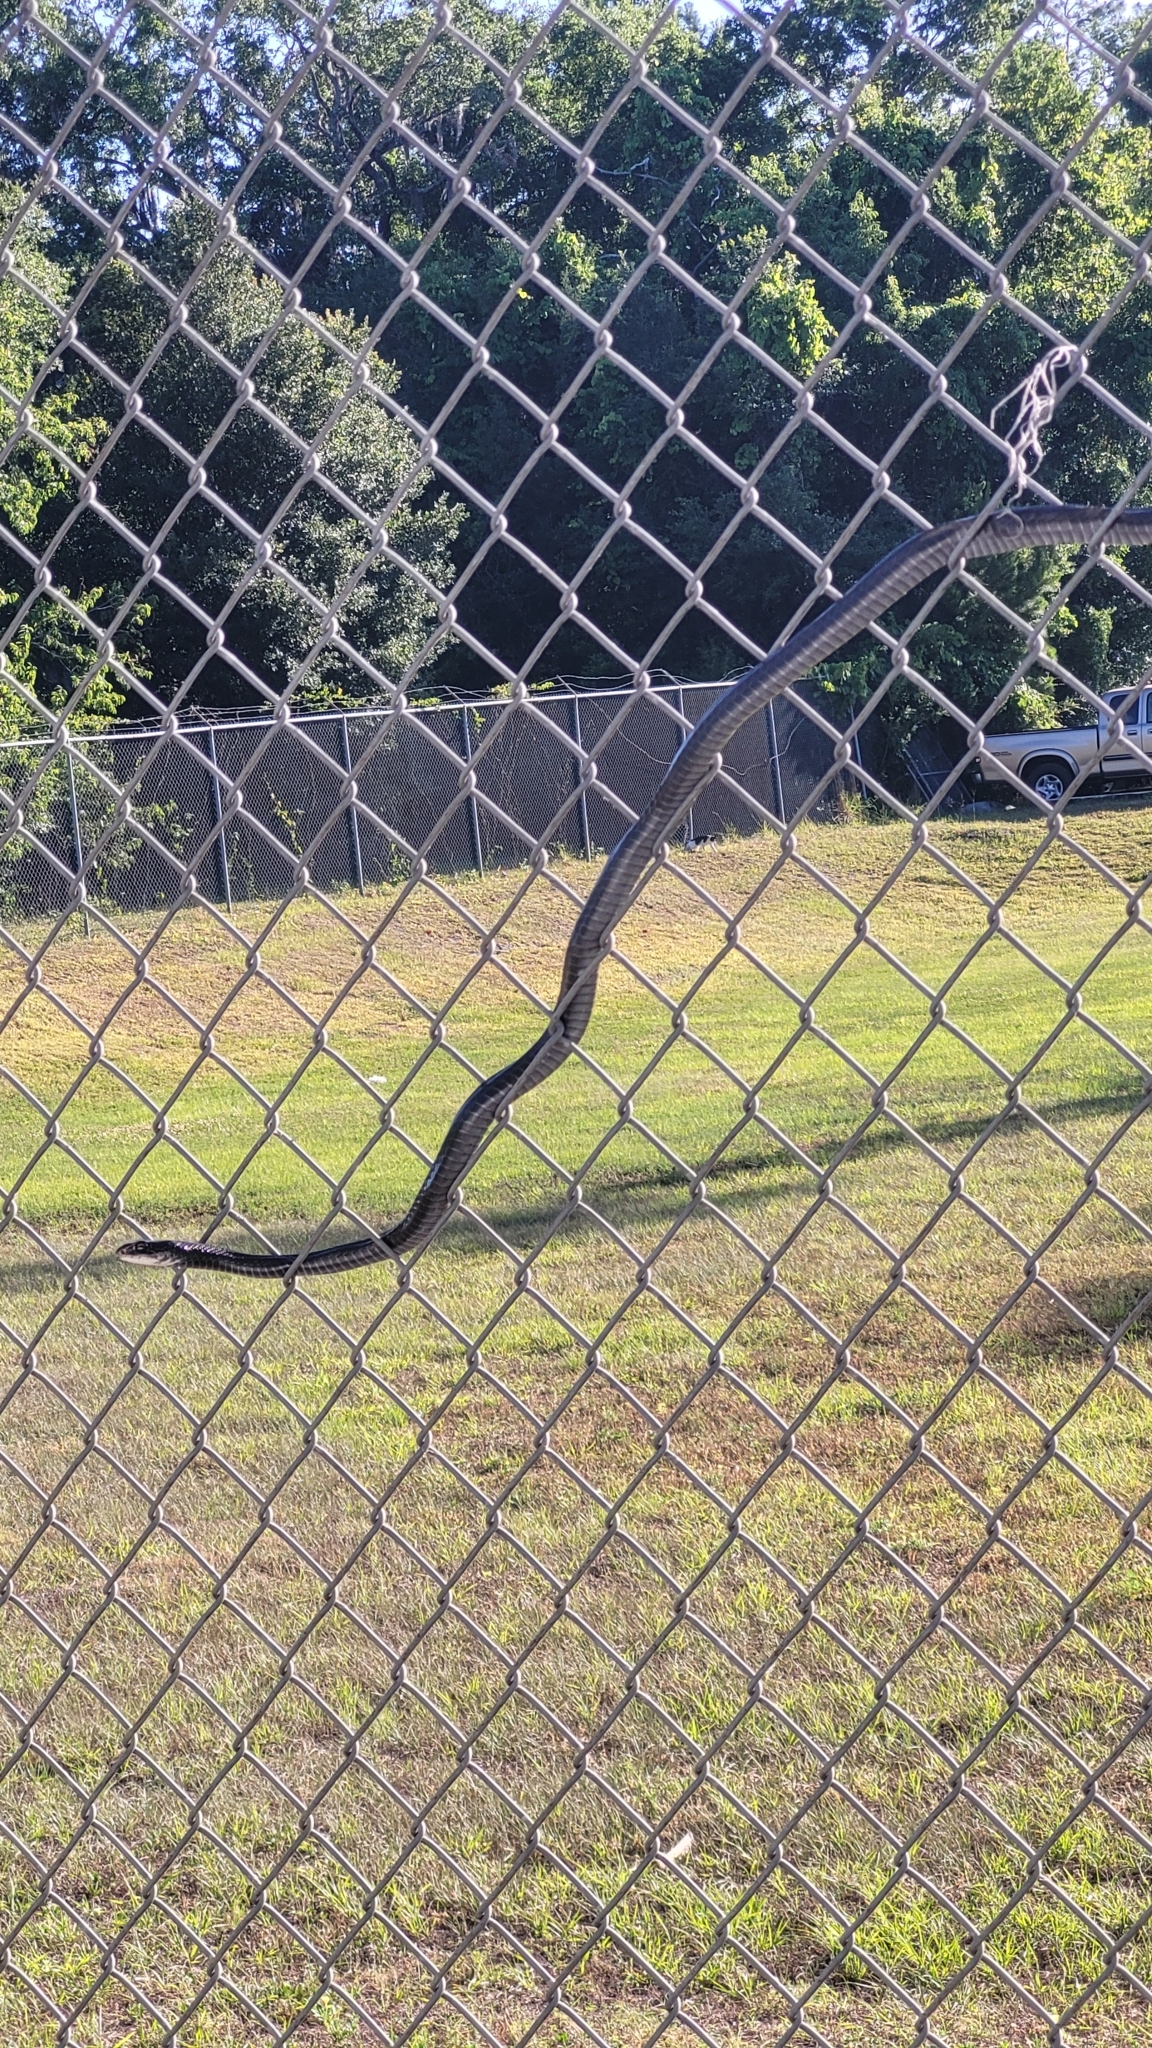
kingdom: Animalia
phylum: Chordata
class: Squamata
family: Colubridae
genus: Coluber
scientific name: Coluber constrictor
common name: Eastern racer
